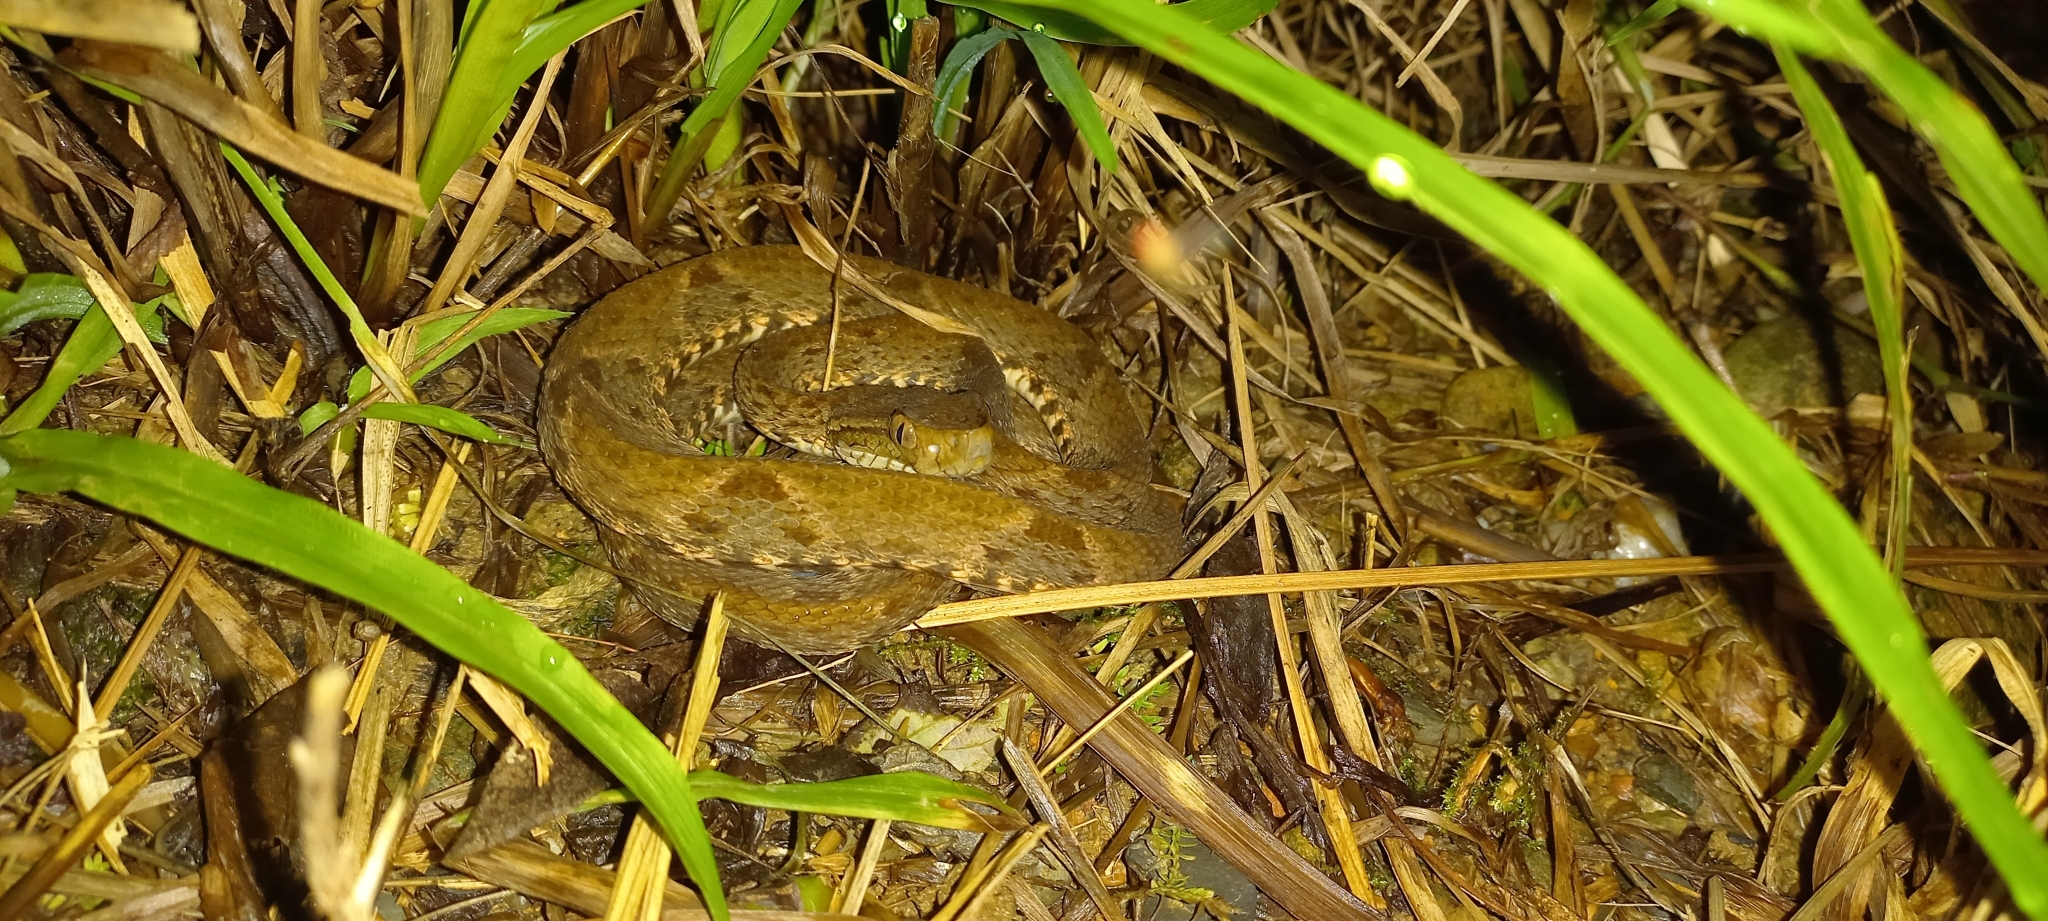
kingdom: Animalia
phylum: Chordata
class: Squamata
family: Viperidae
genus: Bothrops
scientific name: Bothrops asper
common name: Terciopelo
